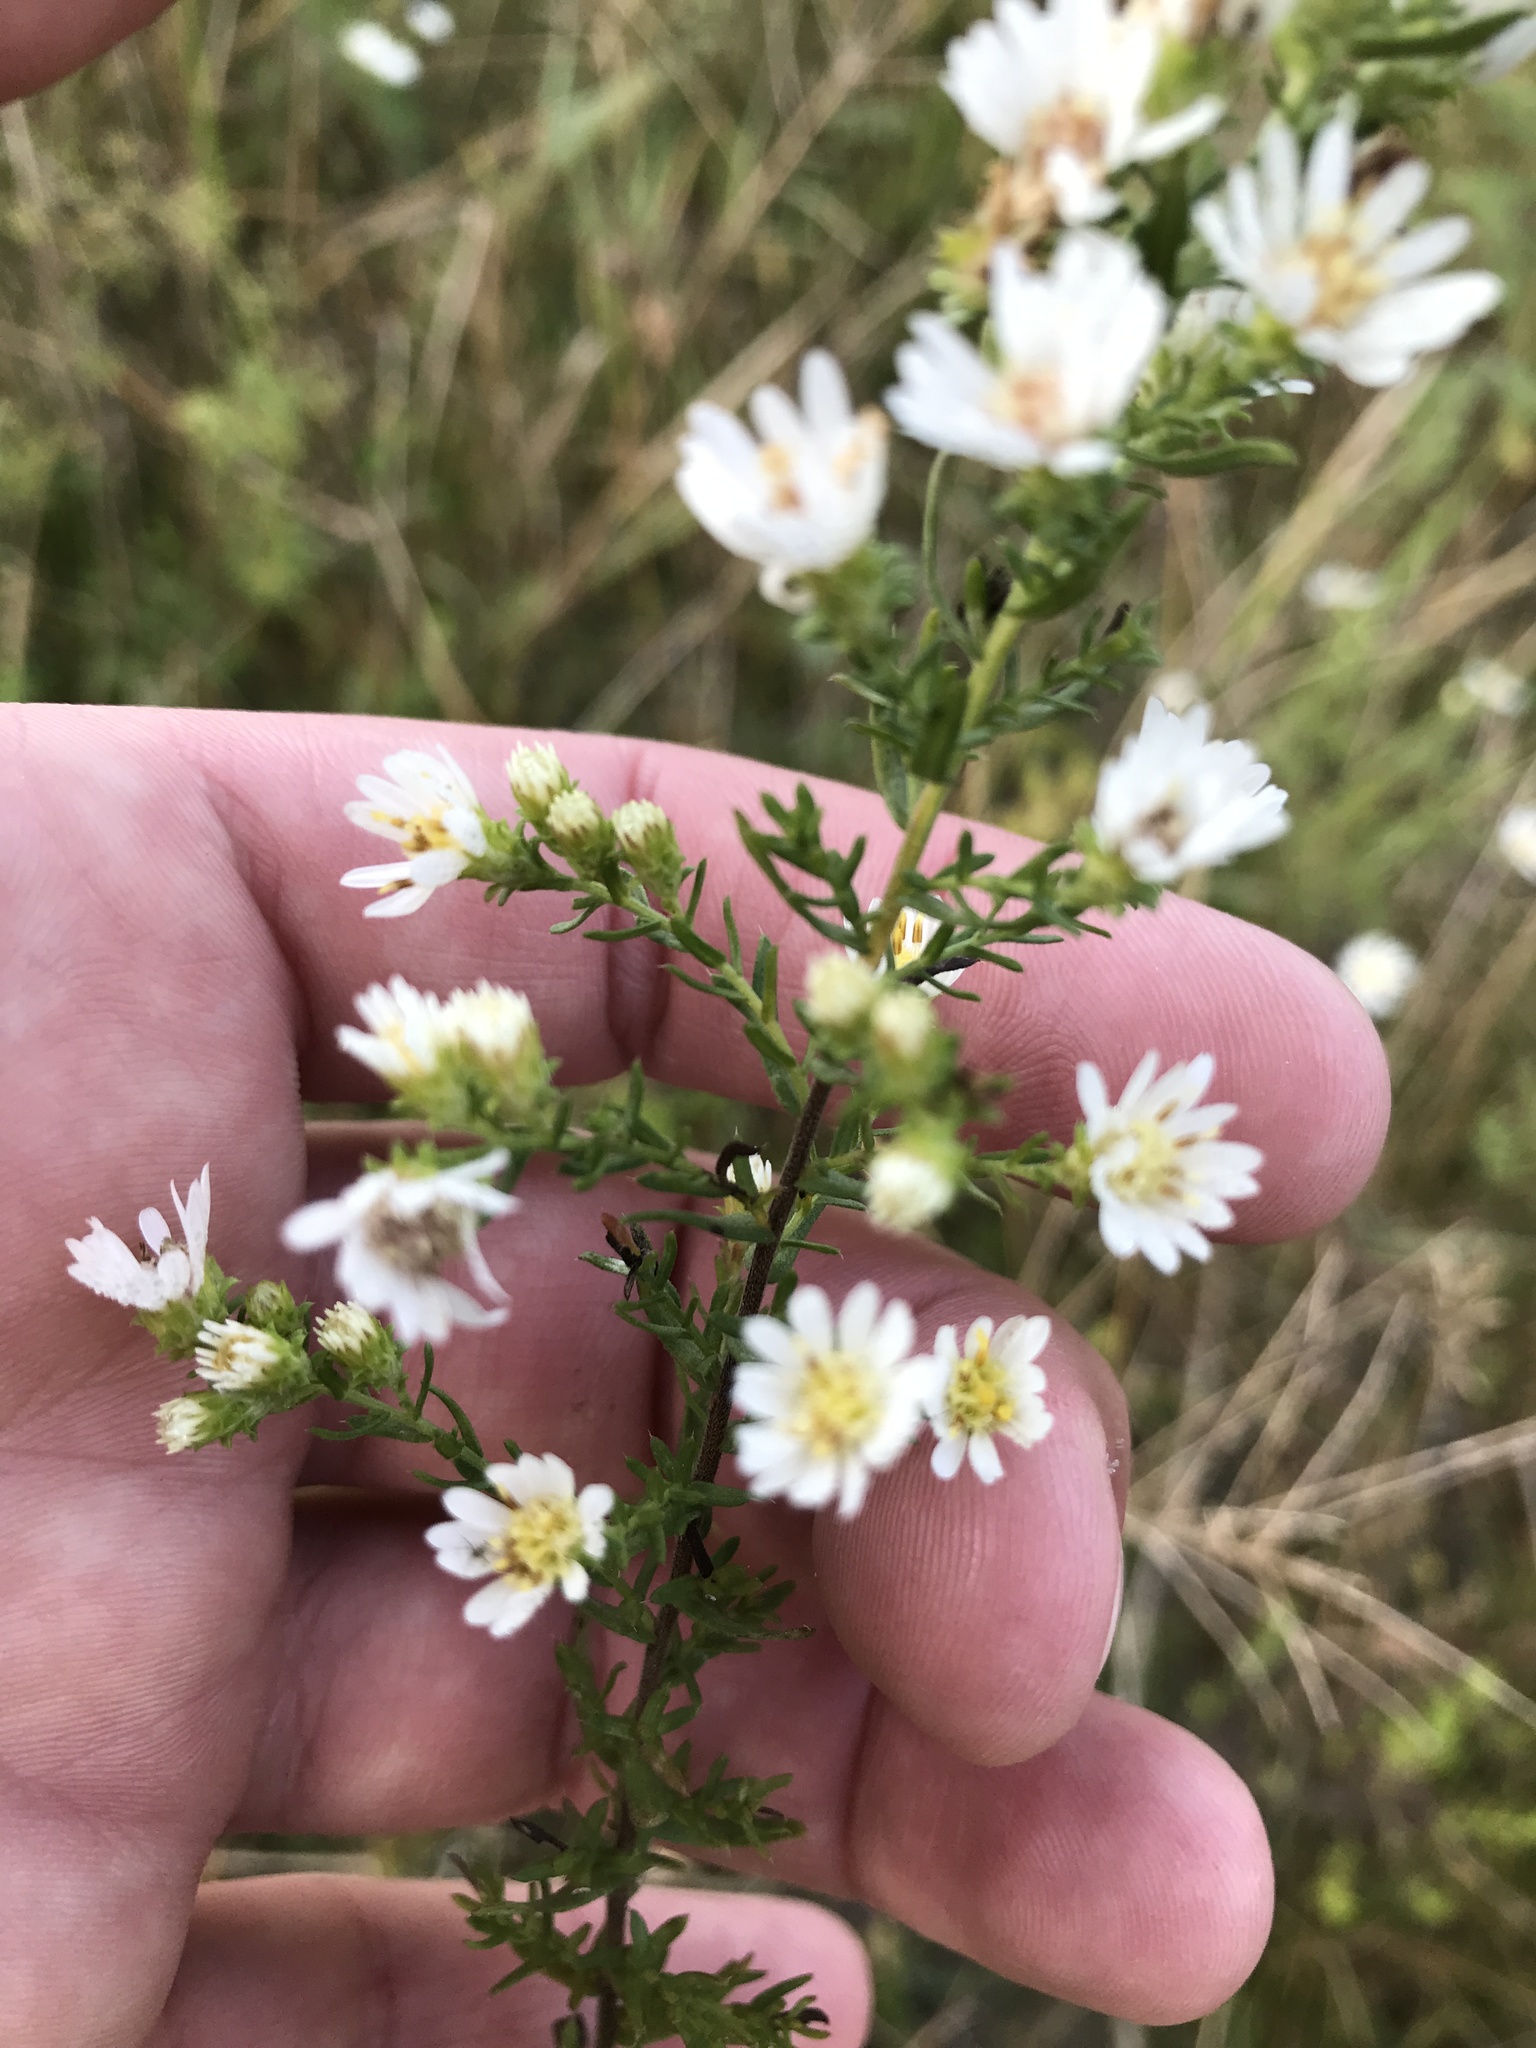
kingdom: Plantae
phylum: Tracheophyta
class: Magnoliopsida
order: Asterales
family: Asteraceae
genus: Symphyotrichum
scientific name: Symphyotrichum ericoides
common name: Heath aster
